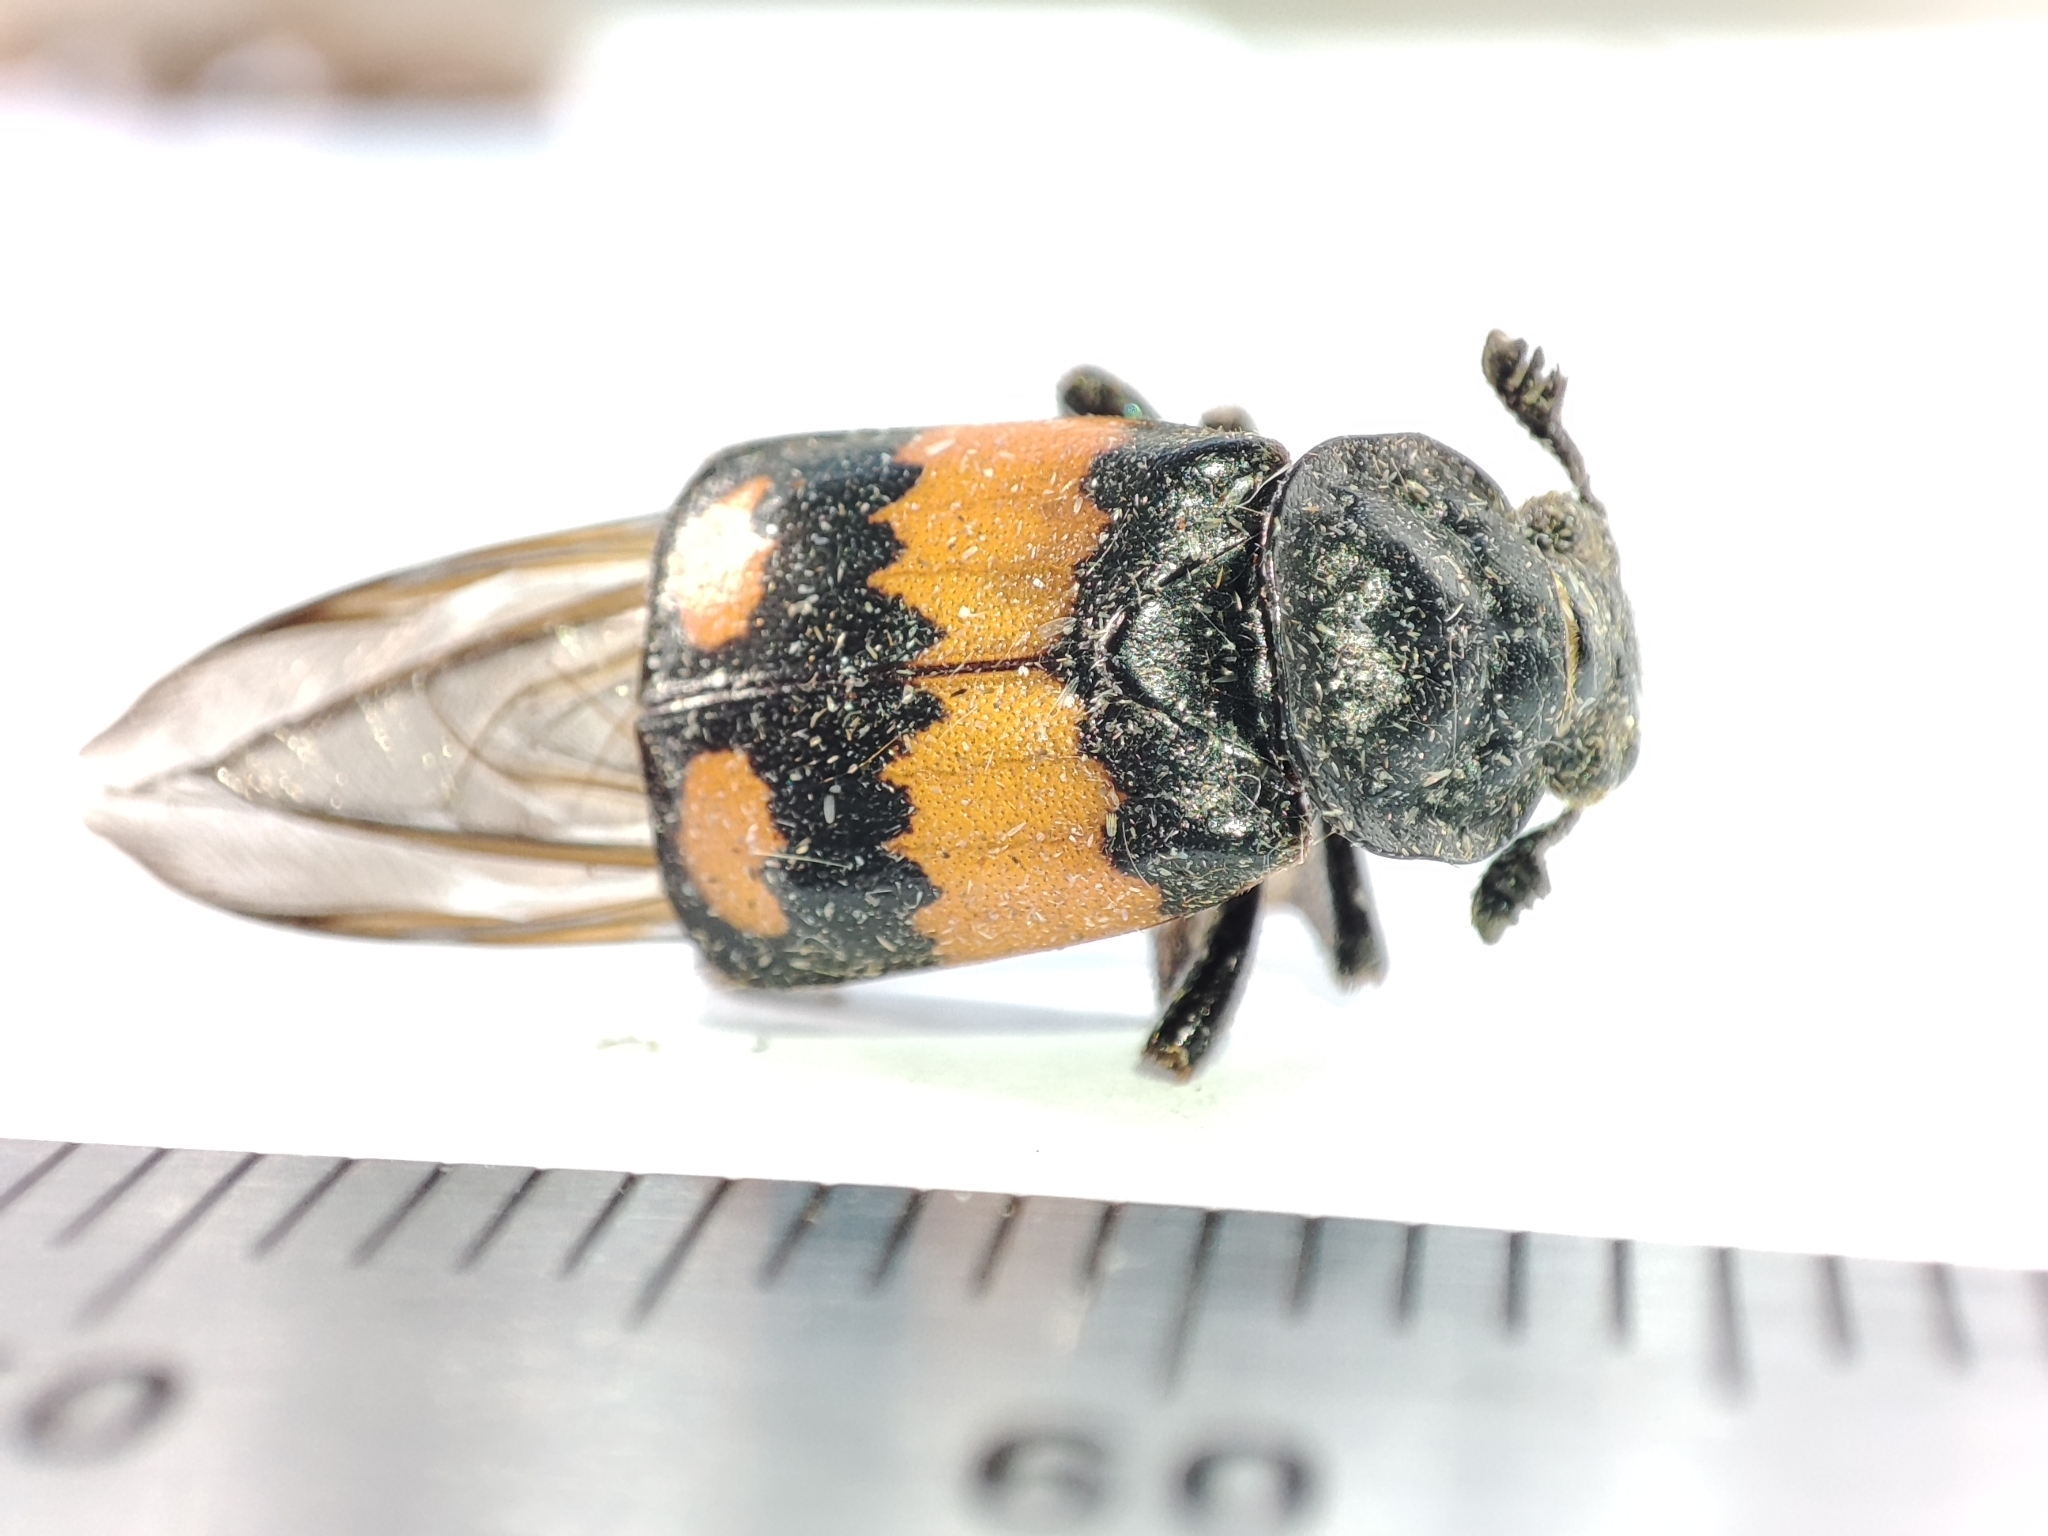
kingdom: Animalia
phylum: Arthropoda
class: Insecta
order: Coleoptera
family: Staphylinidae
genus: Nicrophorus
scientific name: Nicrophorus vespilloides
